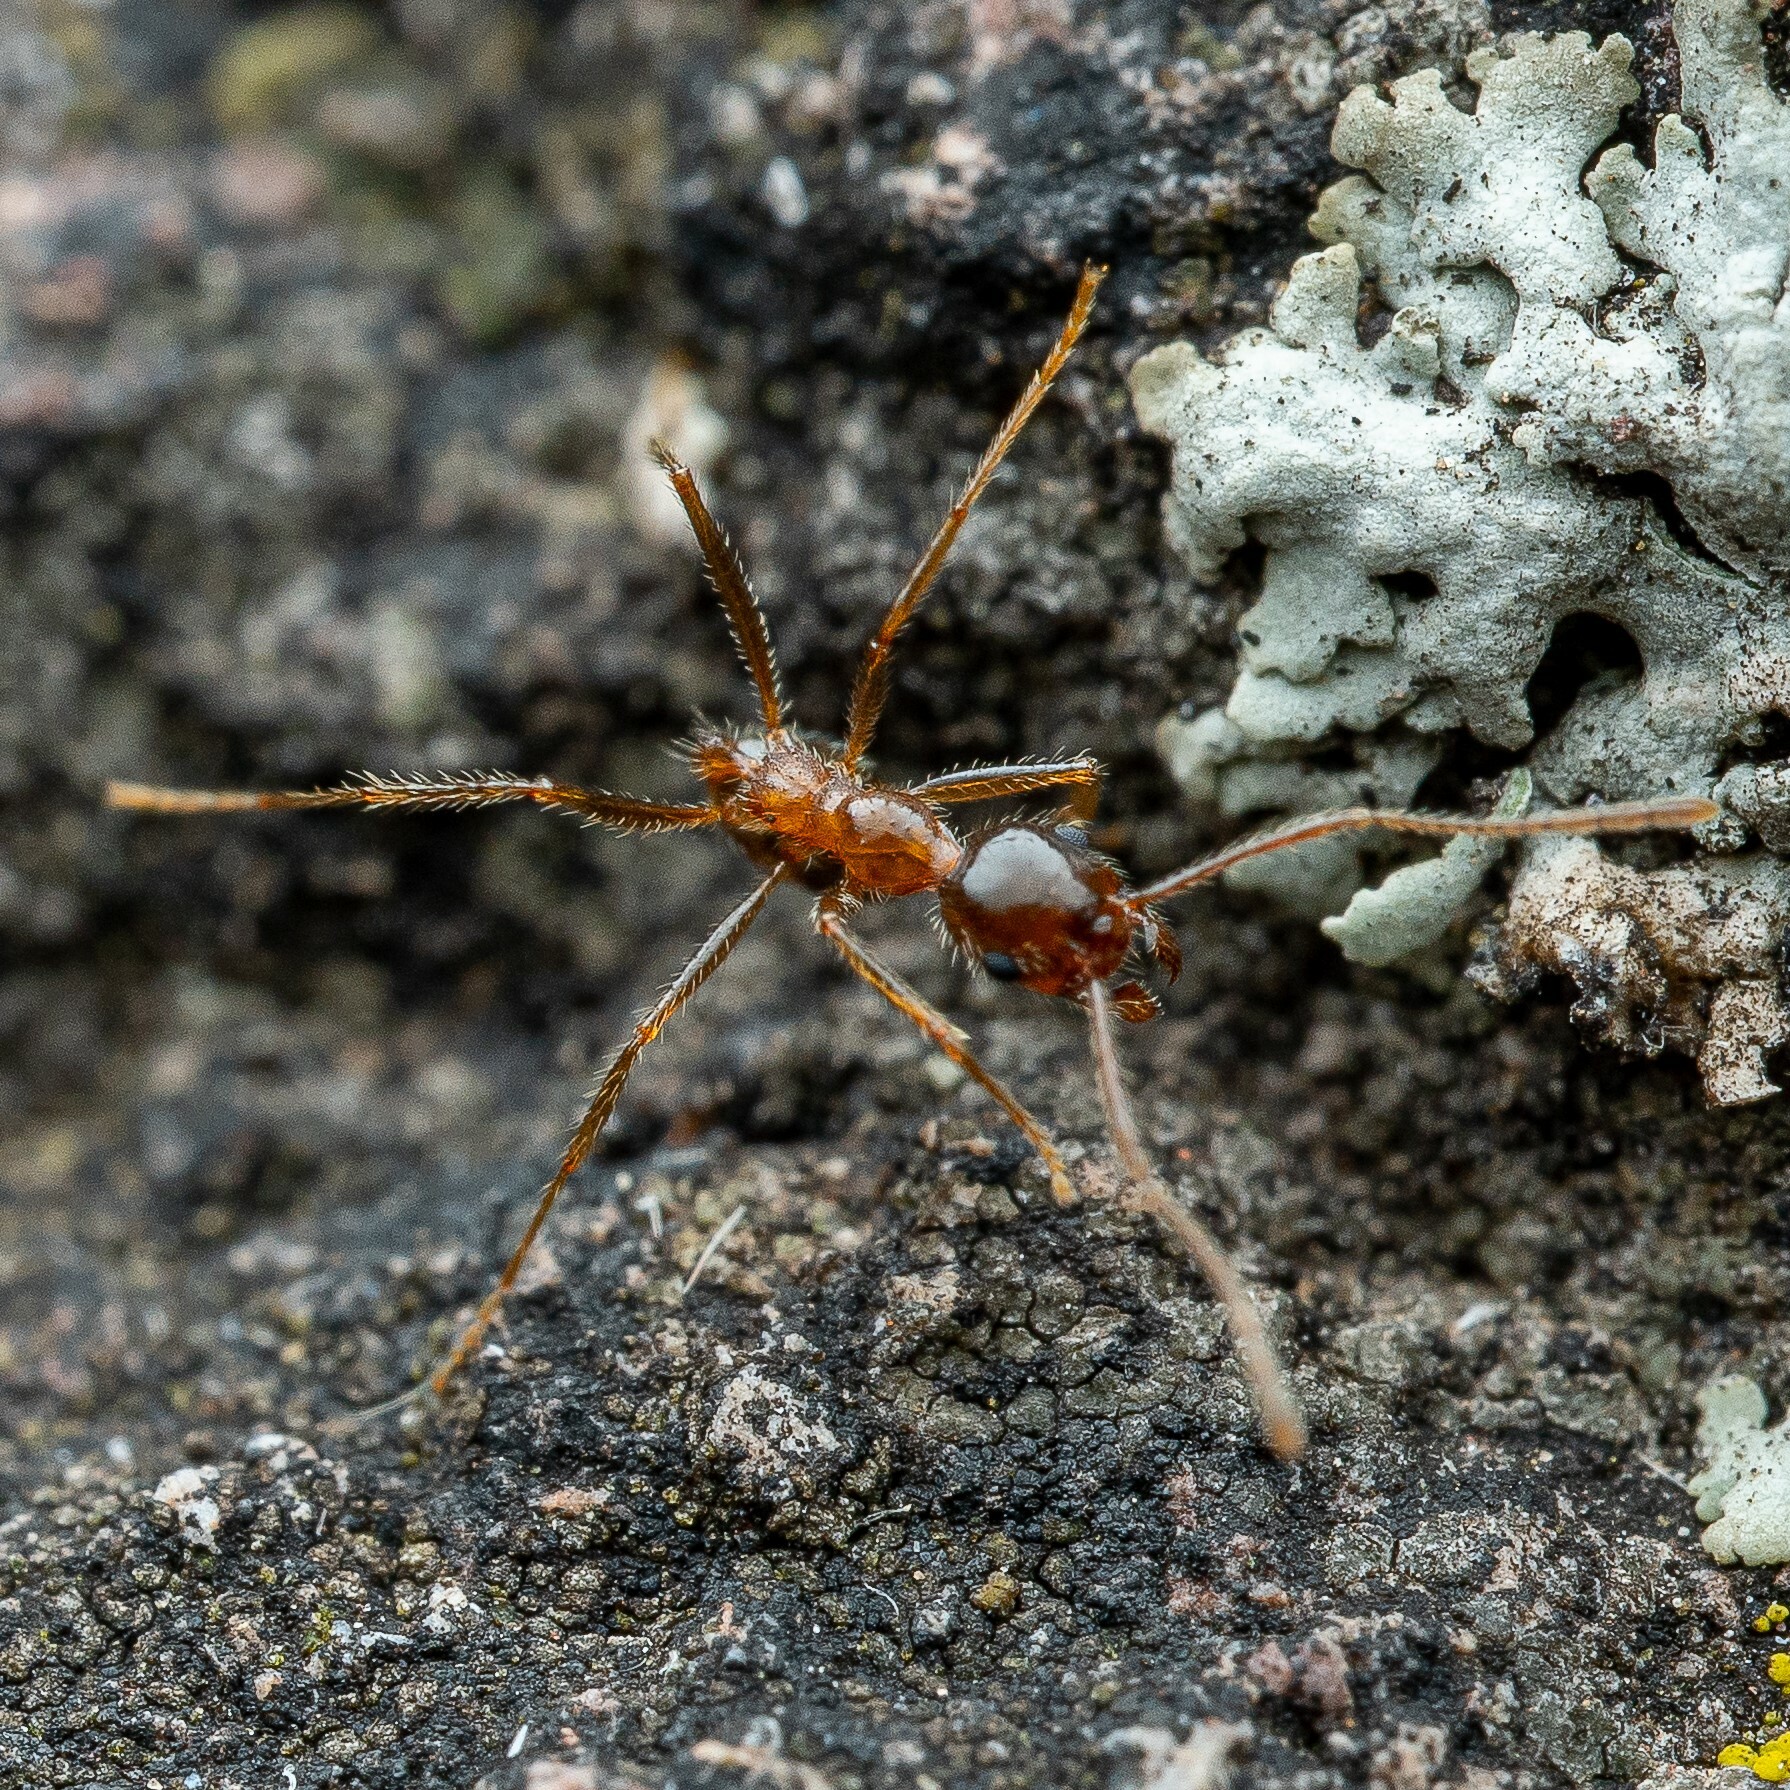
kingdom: Animalia
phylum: Arthropoda
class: Insecta
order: Hymenoptera
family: Formicidae
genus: Pheidole
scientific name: Pheidole obtusospinosa
